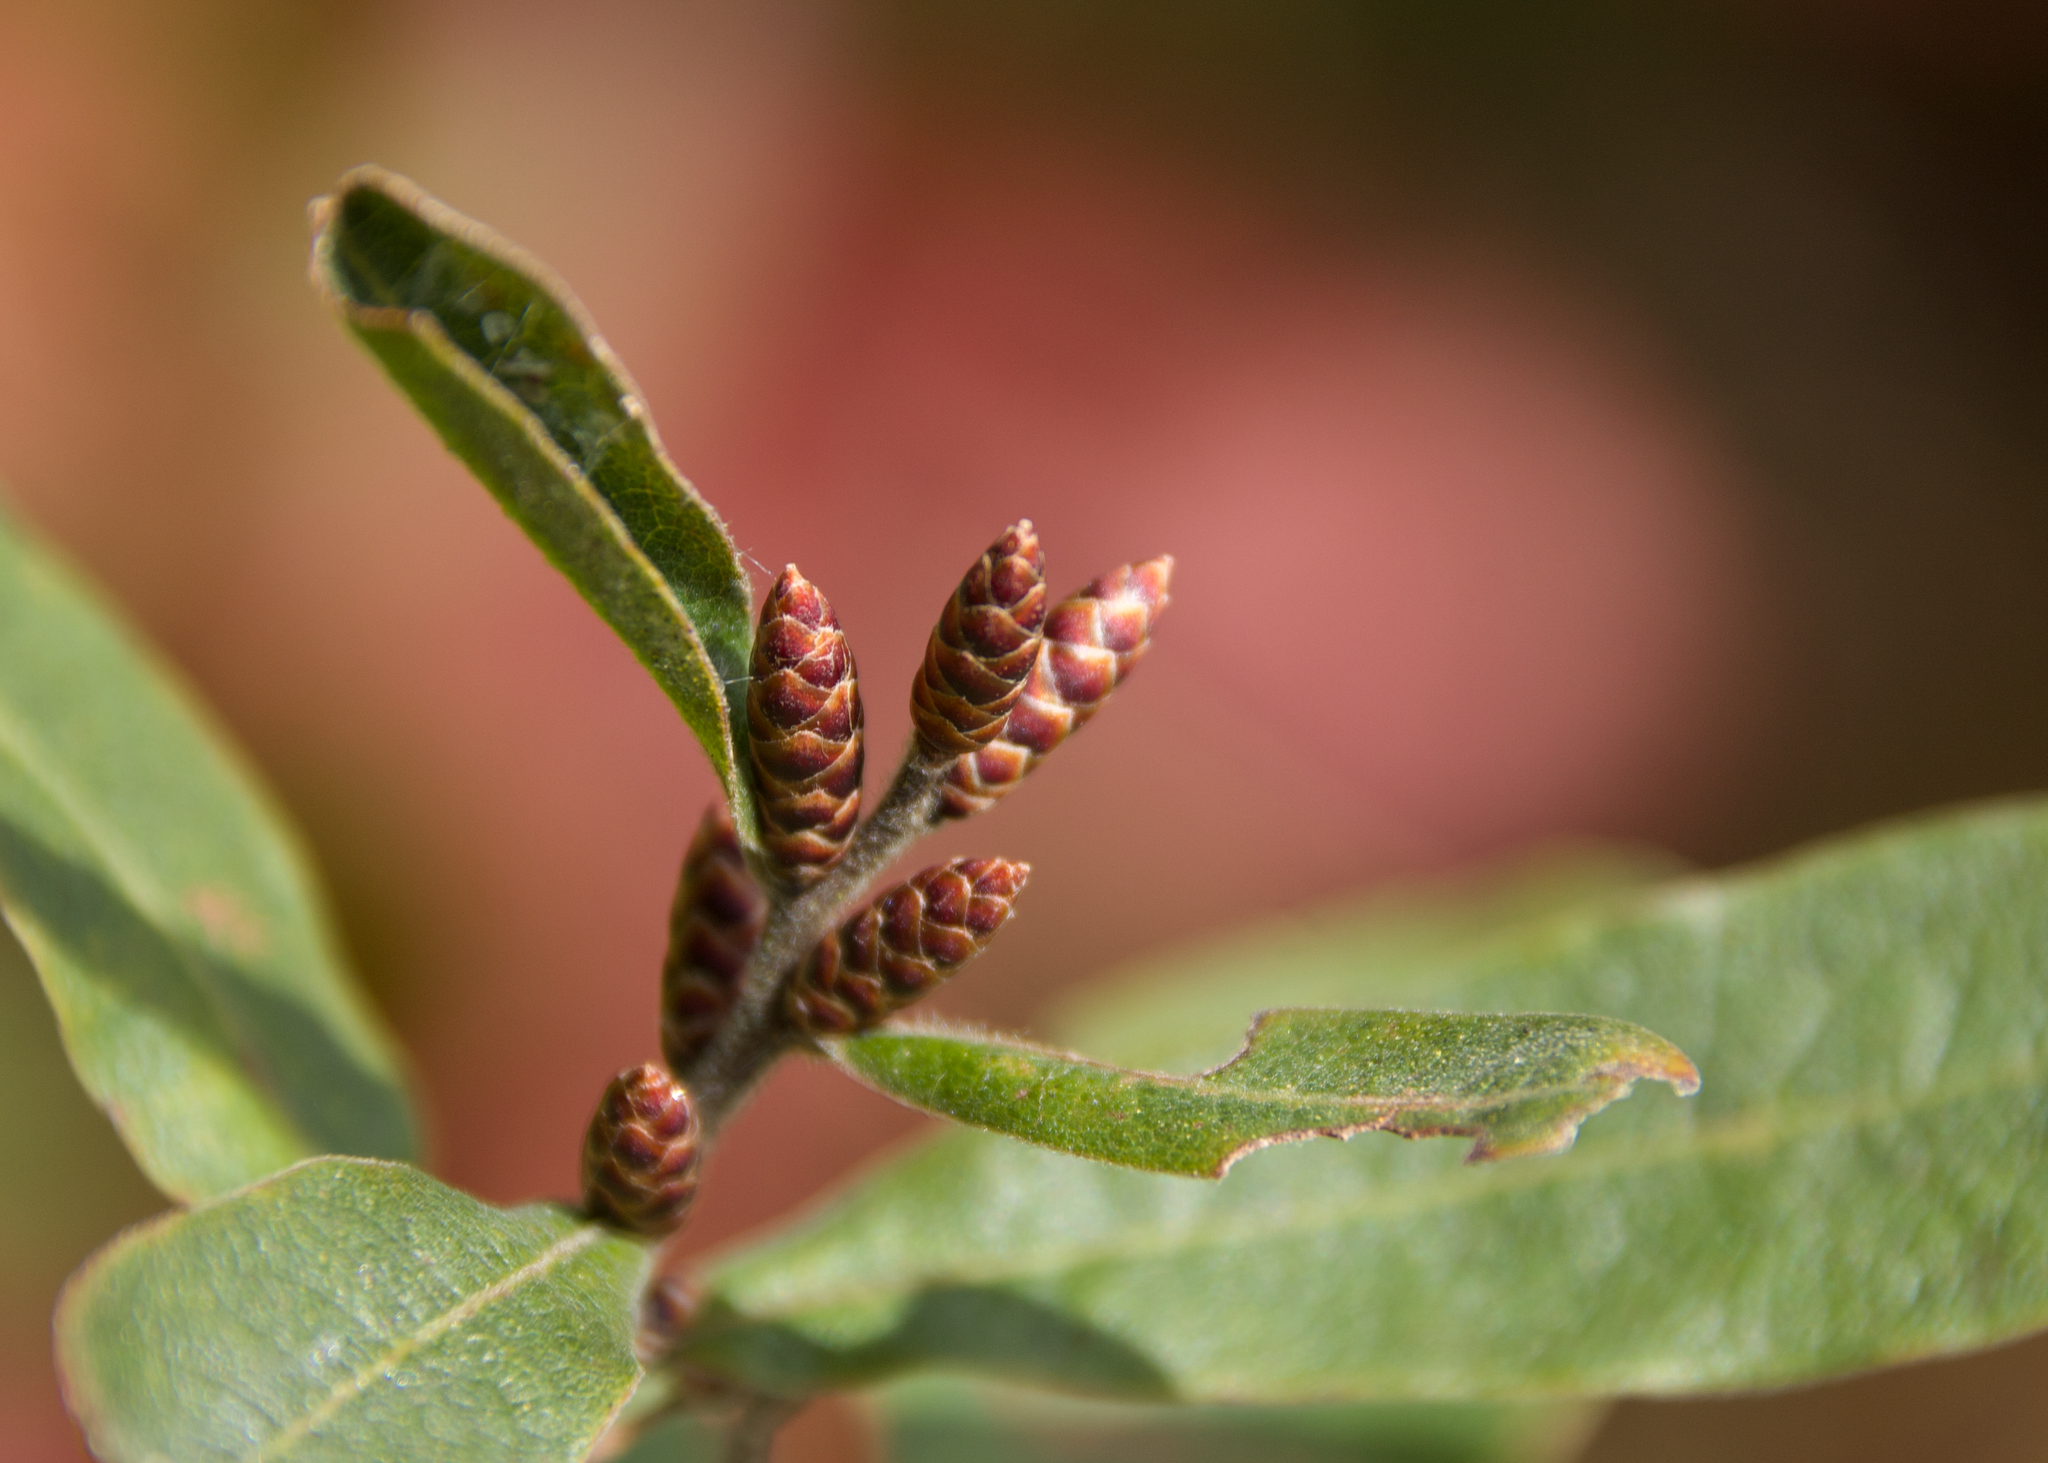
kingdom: Plantae
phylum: Tracheophyta
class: Magnoliopsida
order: Fagales
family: Myricaceae
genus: Myrica
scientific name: Myrica gale
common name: Sweet gale
